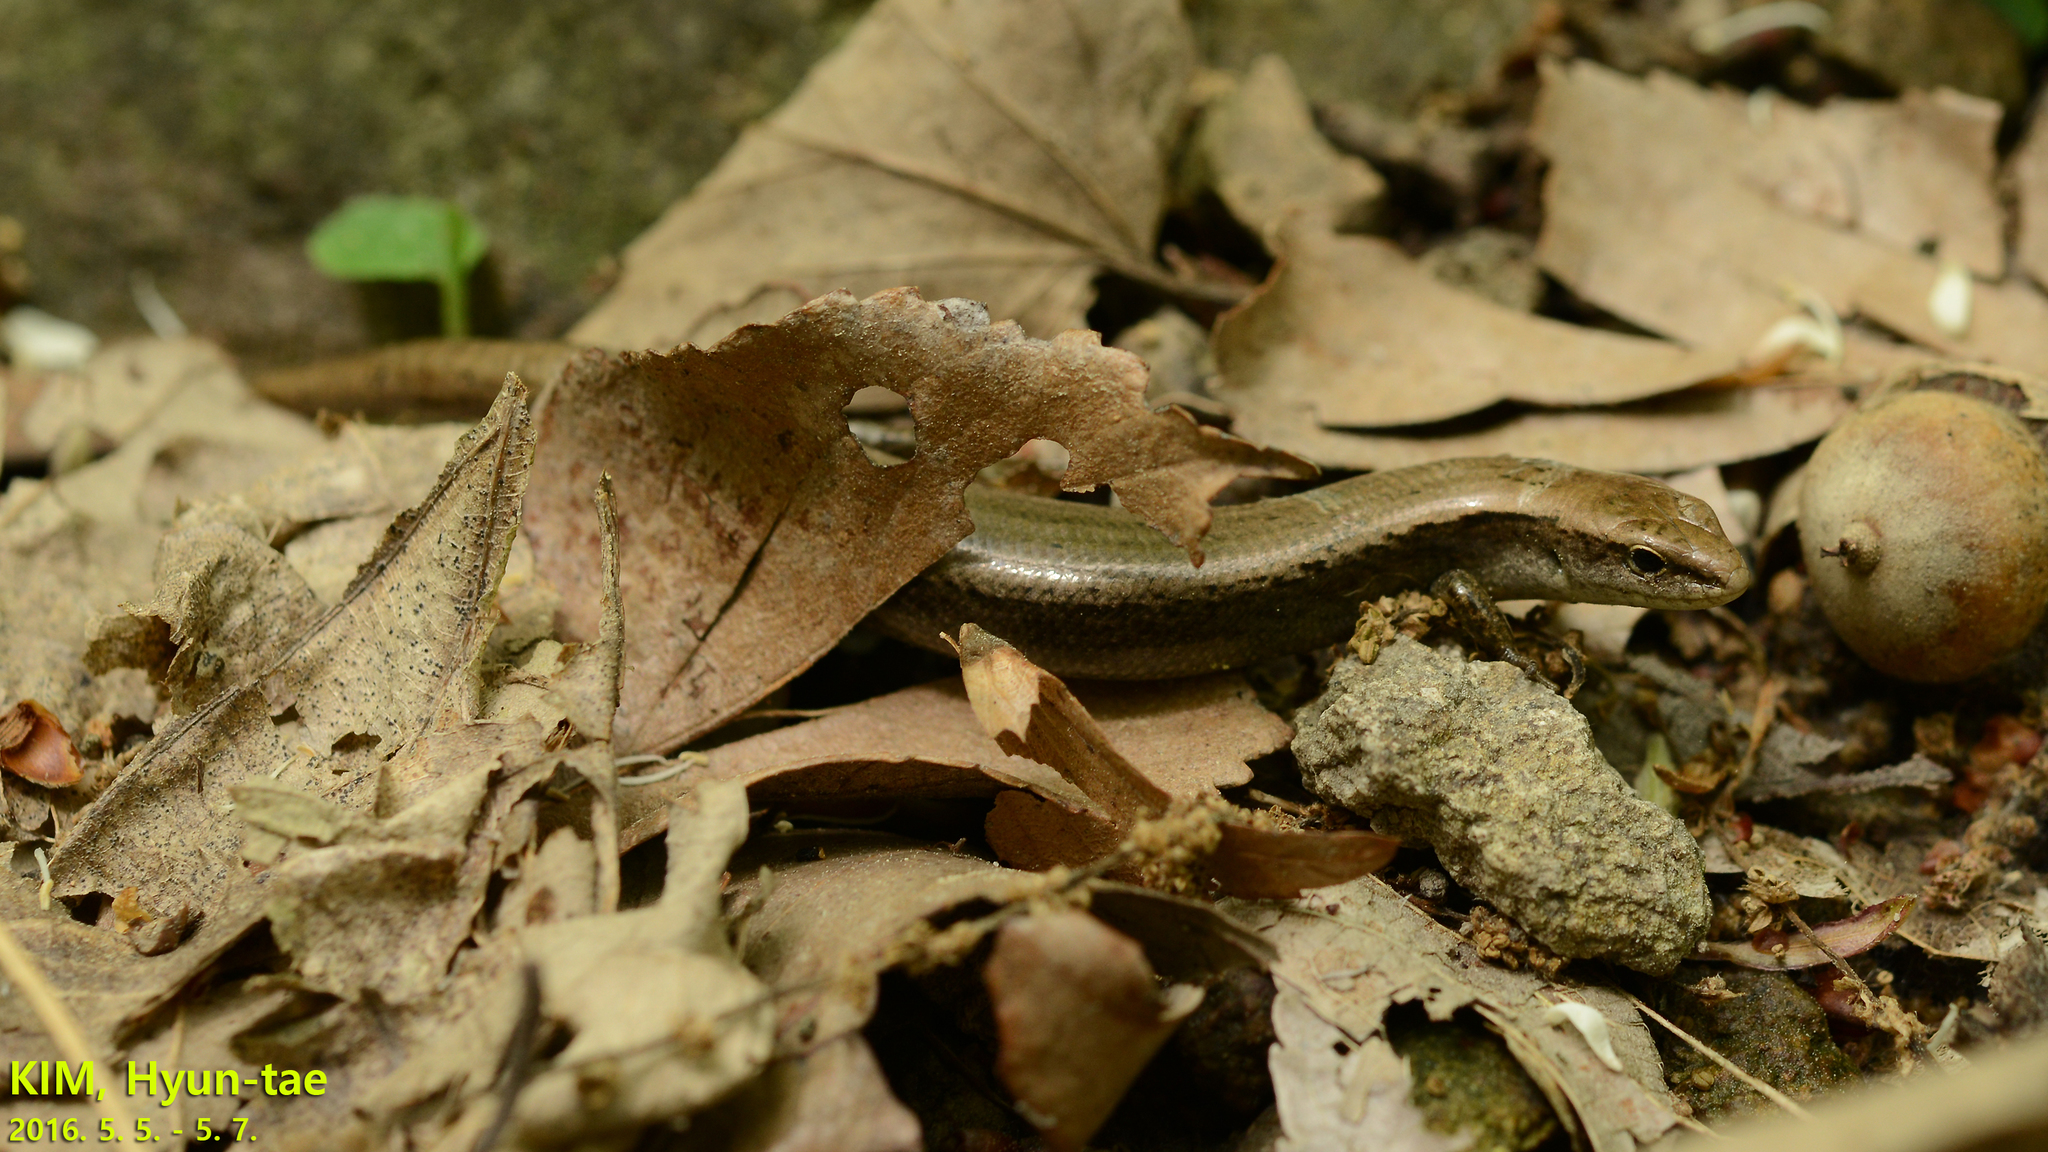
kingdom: Animalia
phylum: Chordata
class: Squamata
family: Scincidae
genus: Scincella
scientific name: Scincella vandenburghi
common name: Tsushima smooth skink
